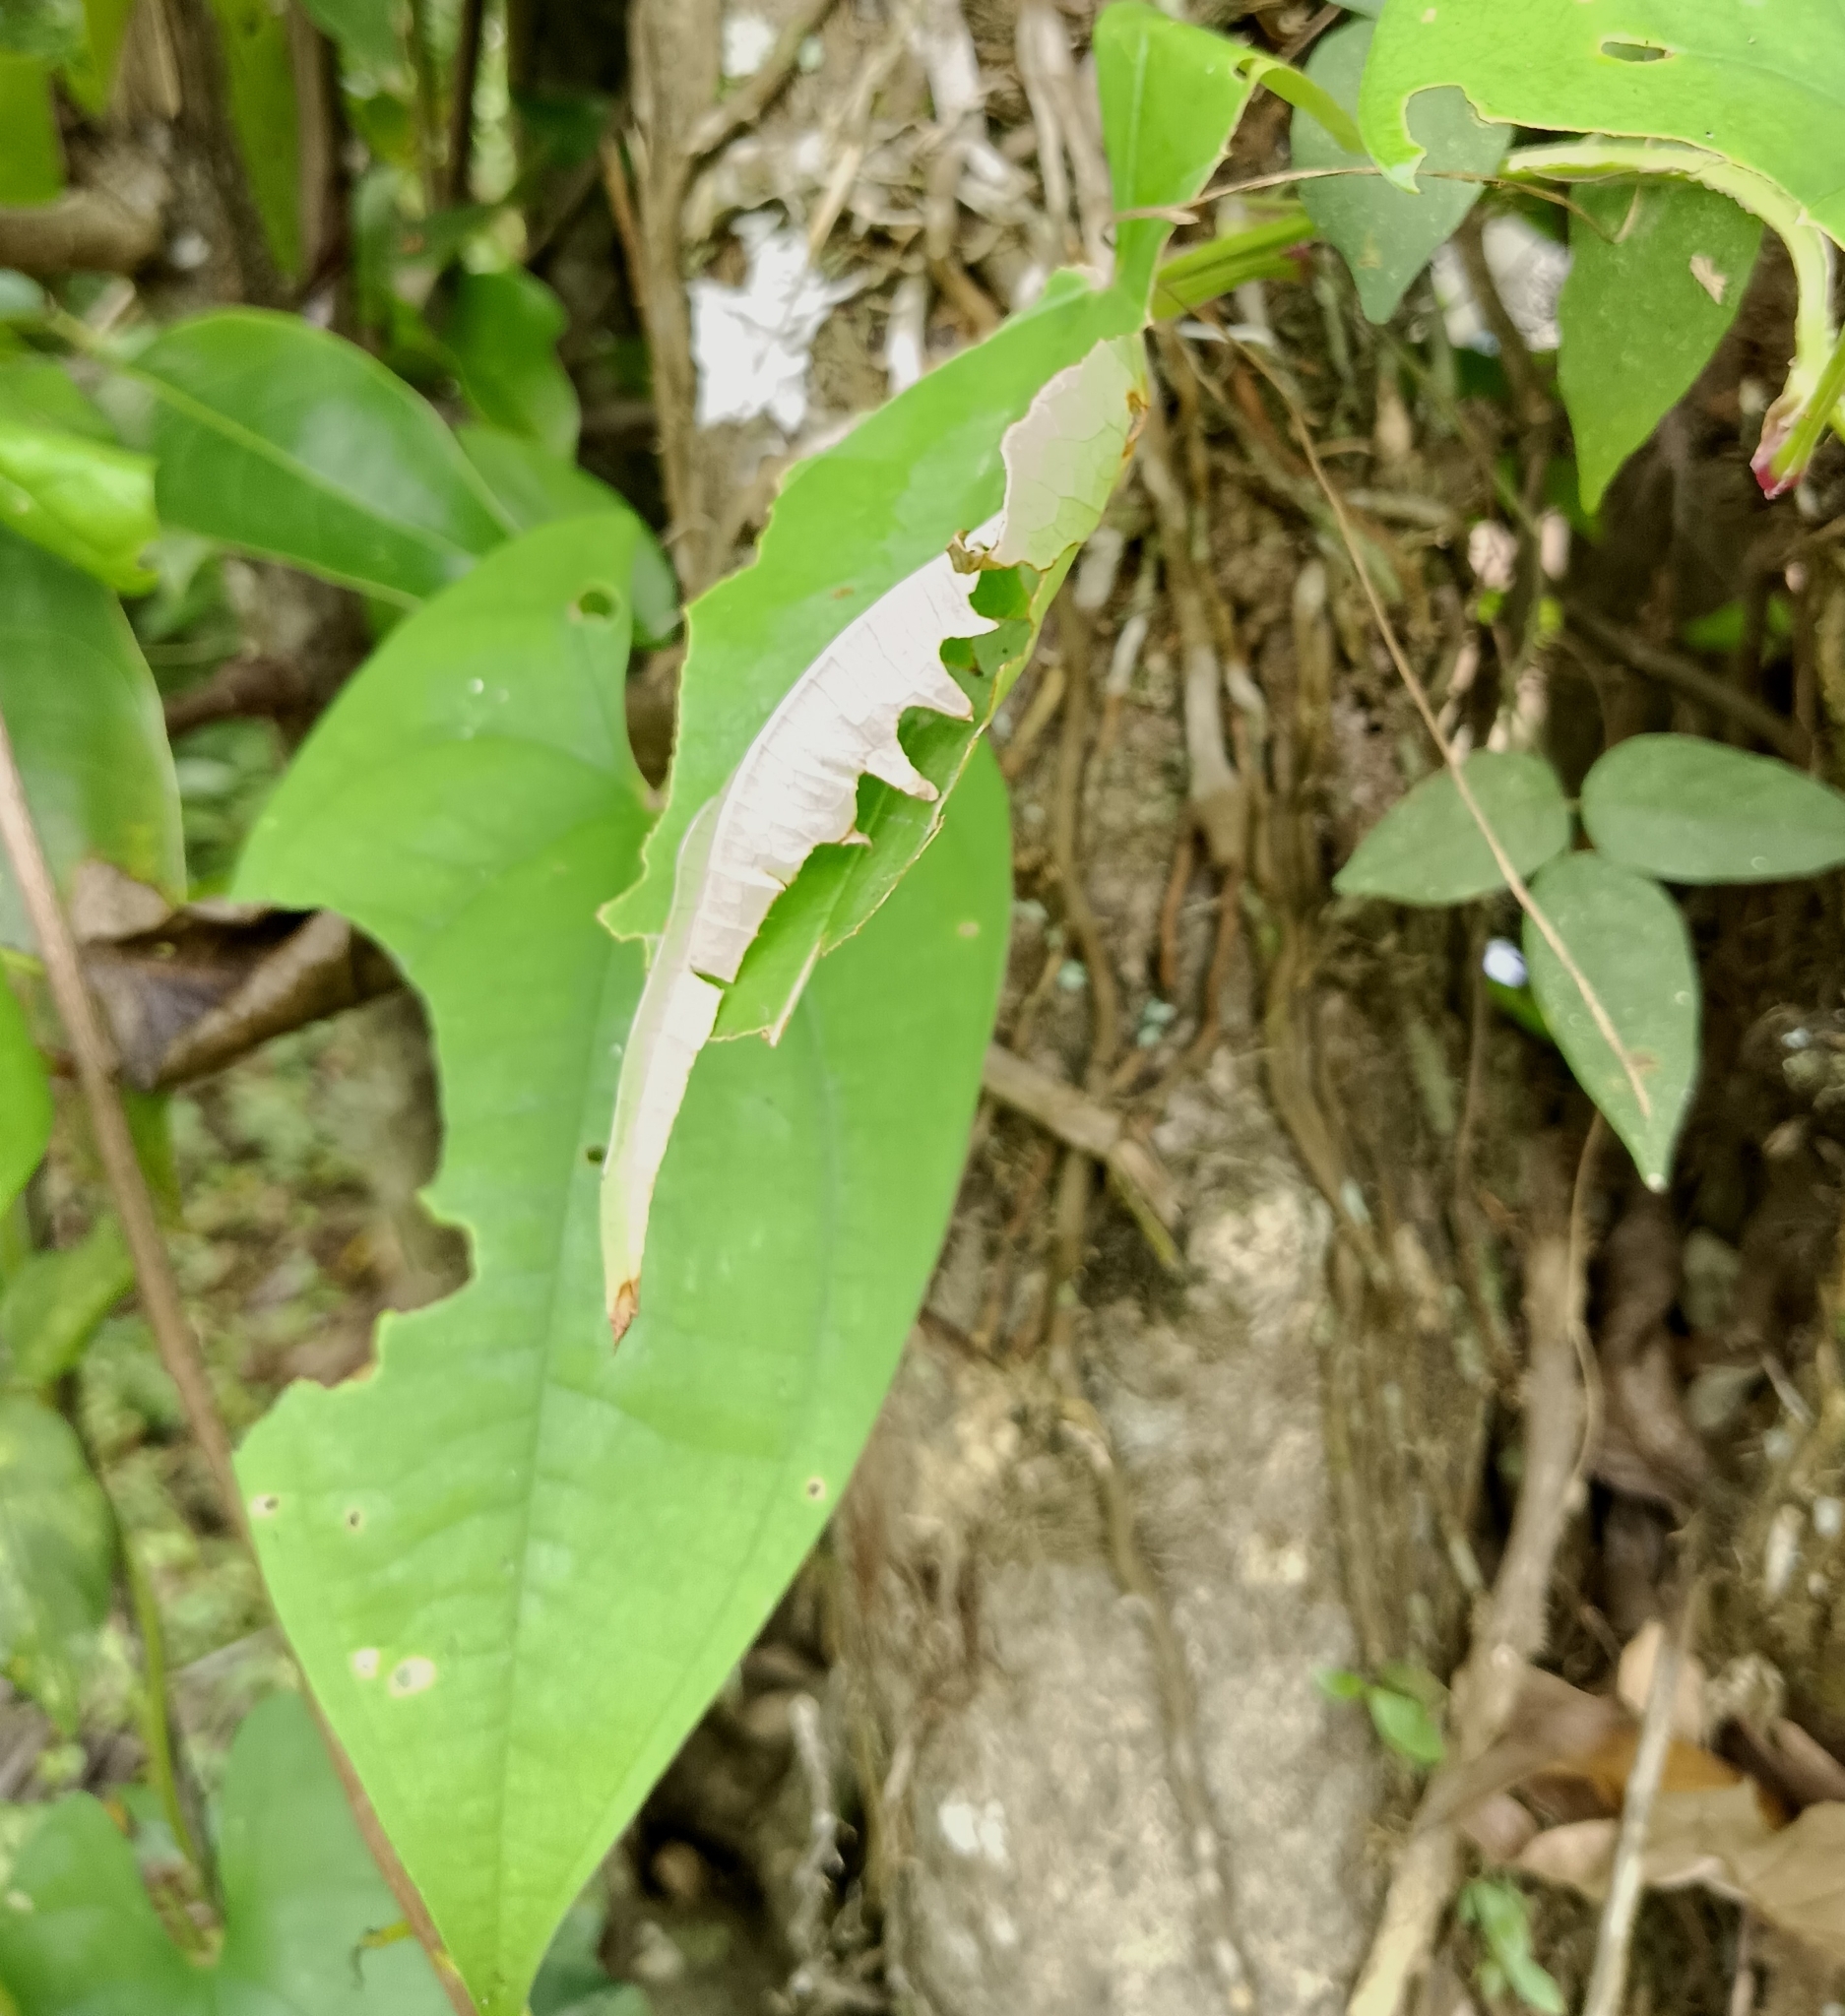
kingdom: Animalia
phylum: Arthropoda
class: Insecta
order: Lepidoptera
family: Hesperiidae
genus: Tagiades
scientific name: Tagiades litigiosa
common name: Water snow flat
